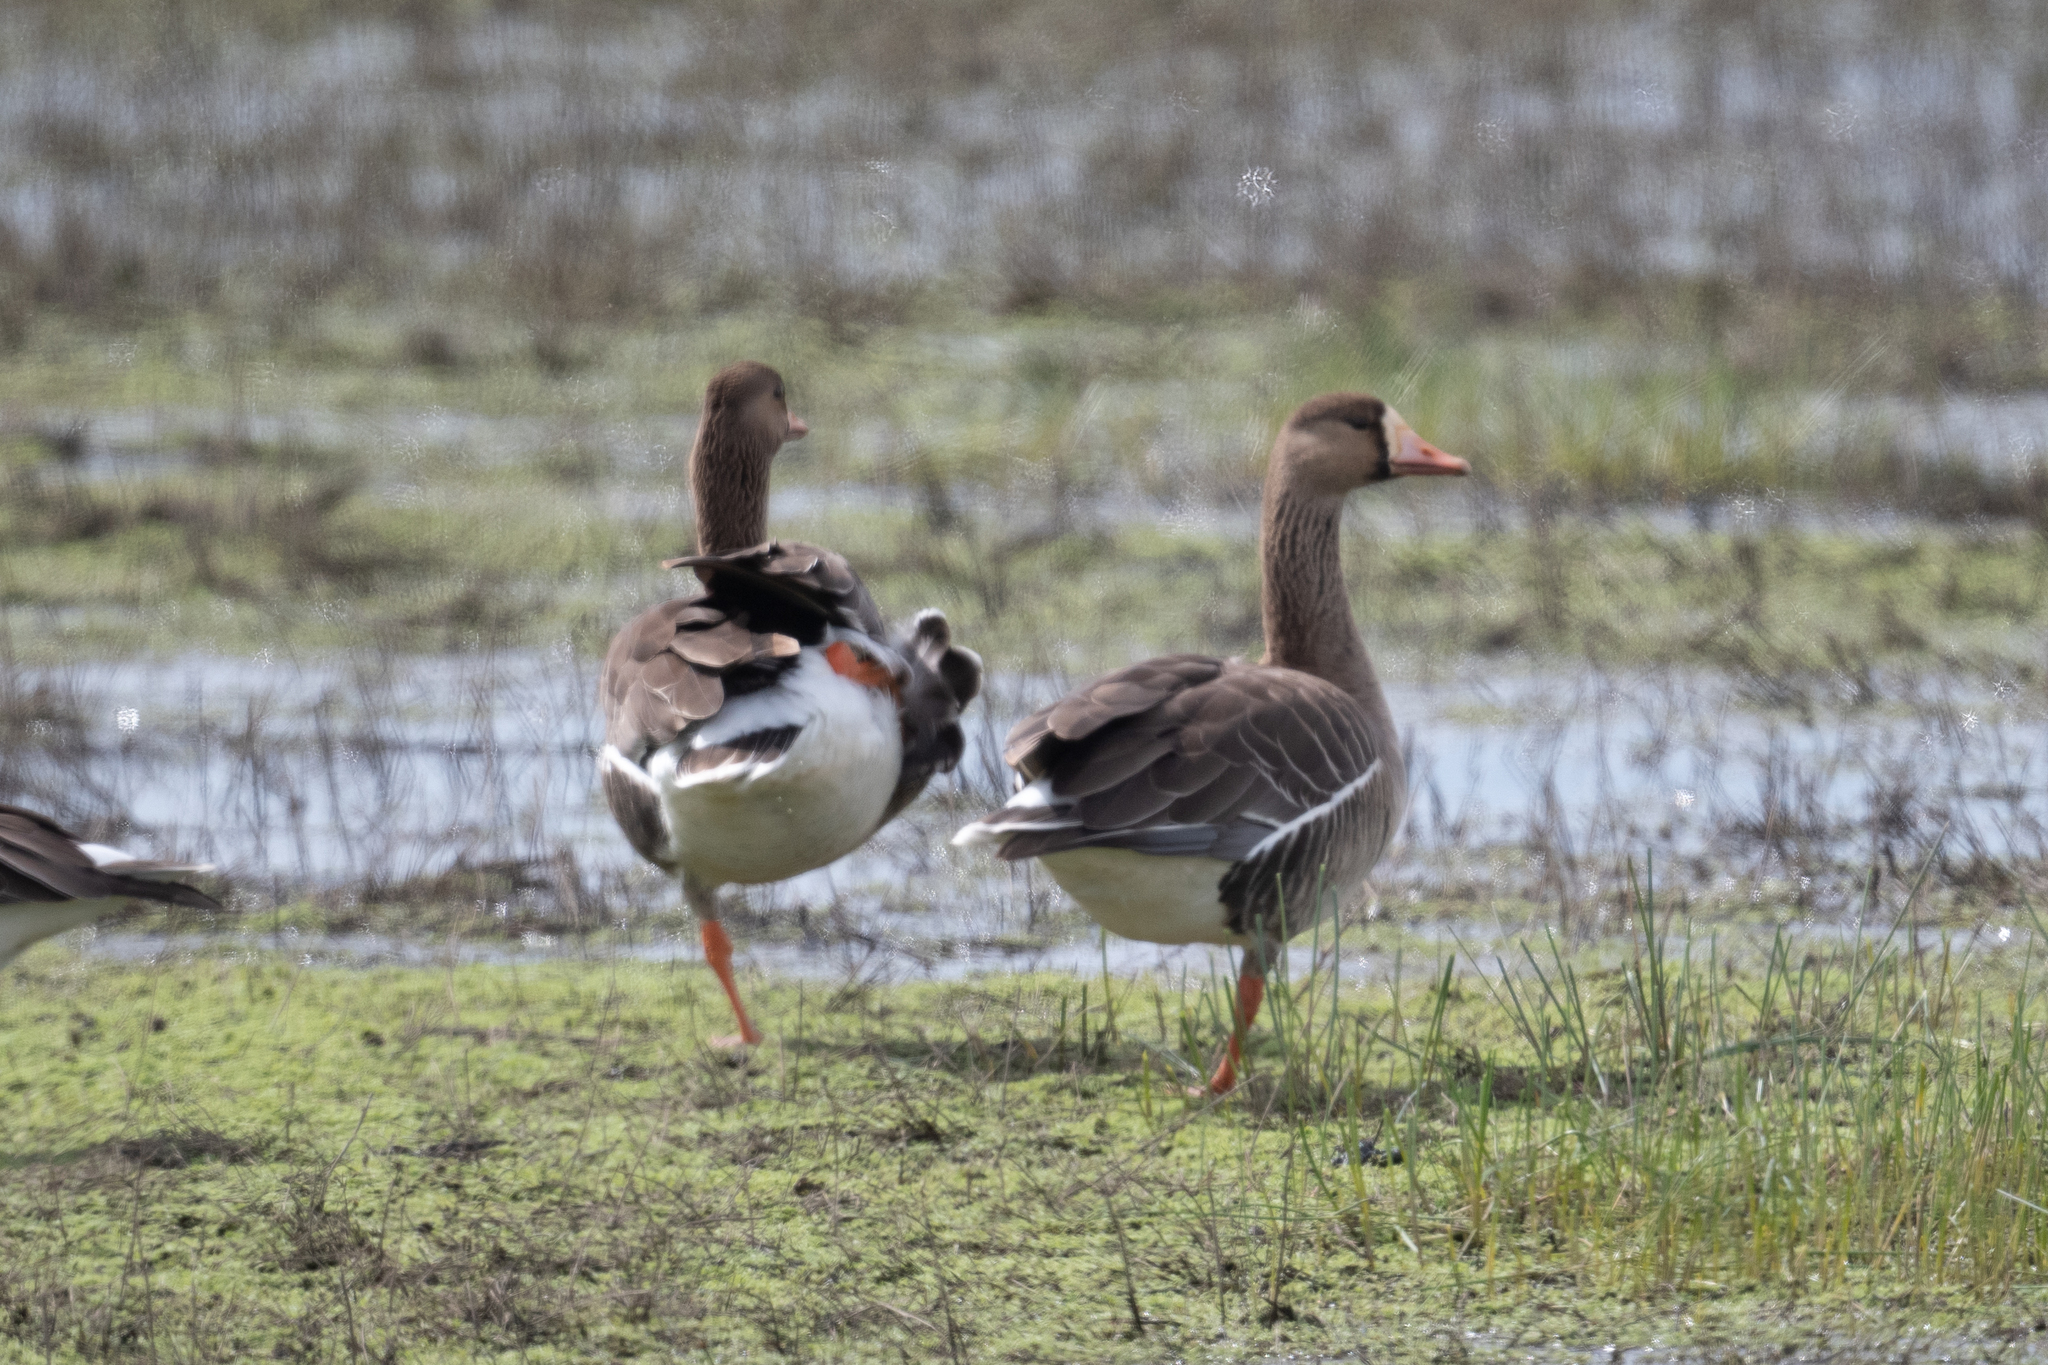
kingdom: Animalia
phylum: Chordata
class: Aves
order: Anseriformes
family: Anatidae
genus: Anser
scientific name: Anser albifrons
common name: Greater white-fronted goose
